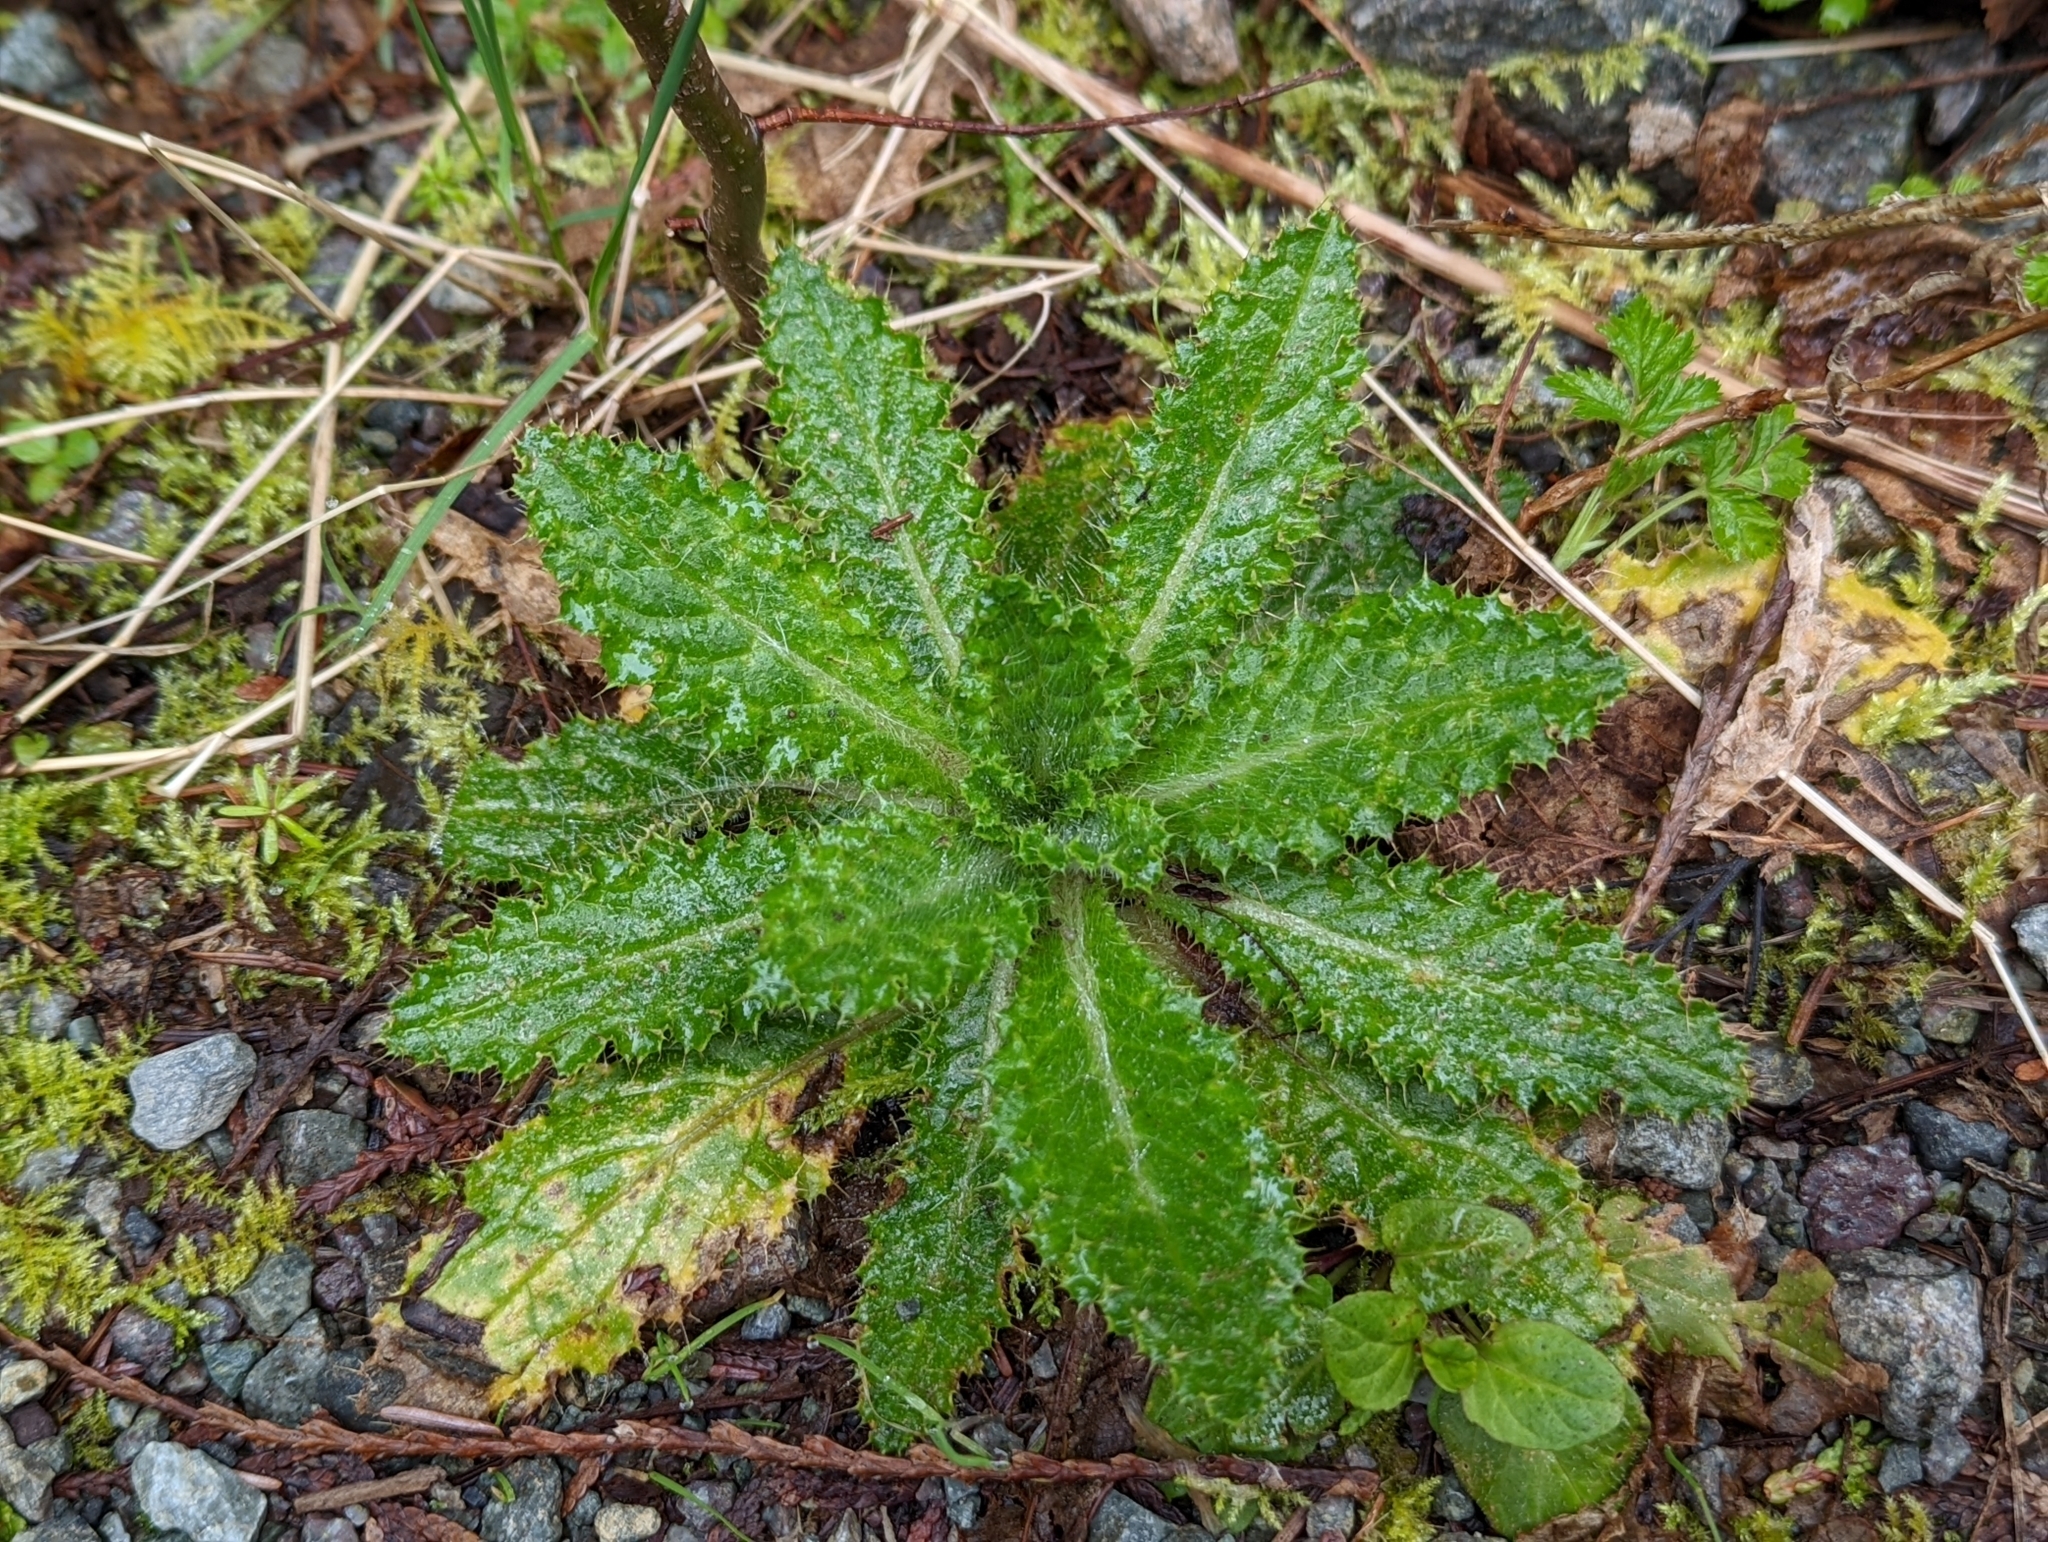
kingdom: Plantae
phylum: Tracheophyta
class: Magnoliopsida
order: Asterales
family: Asteraceae
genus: Cirsium
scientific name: Cirsium brevistylum
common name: Indian thistle
